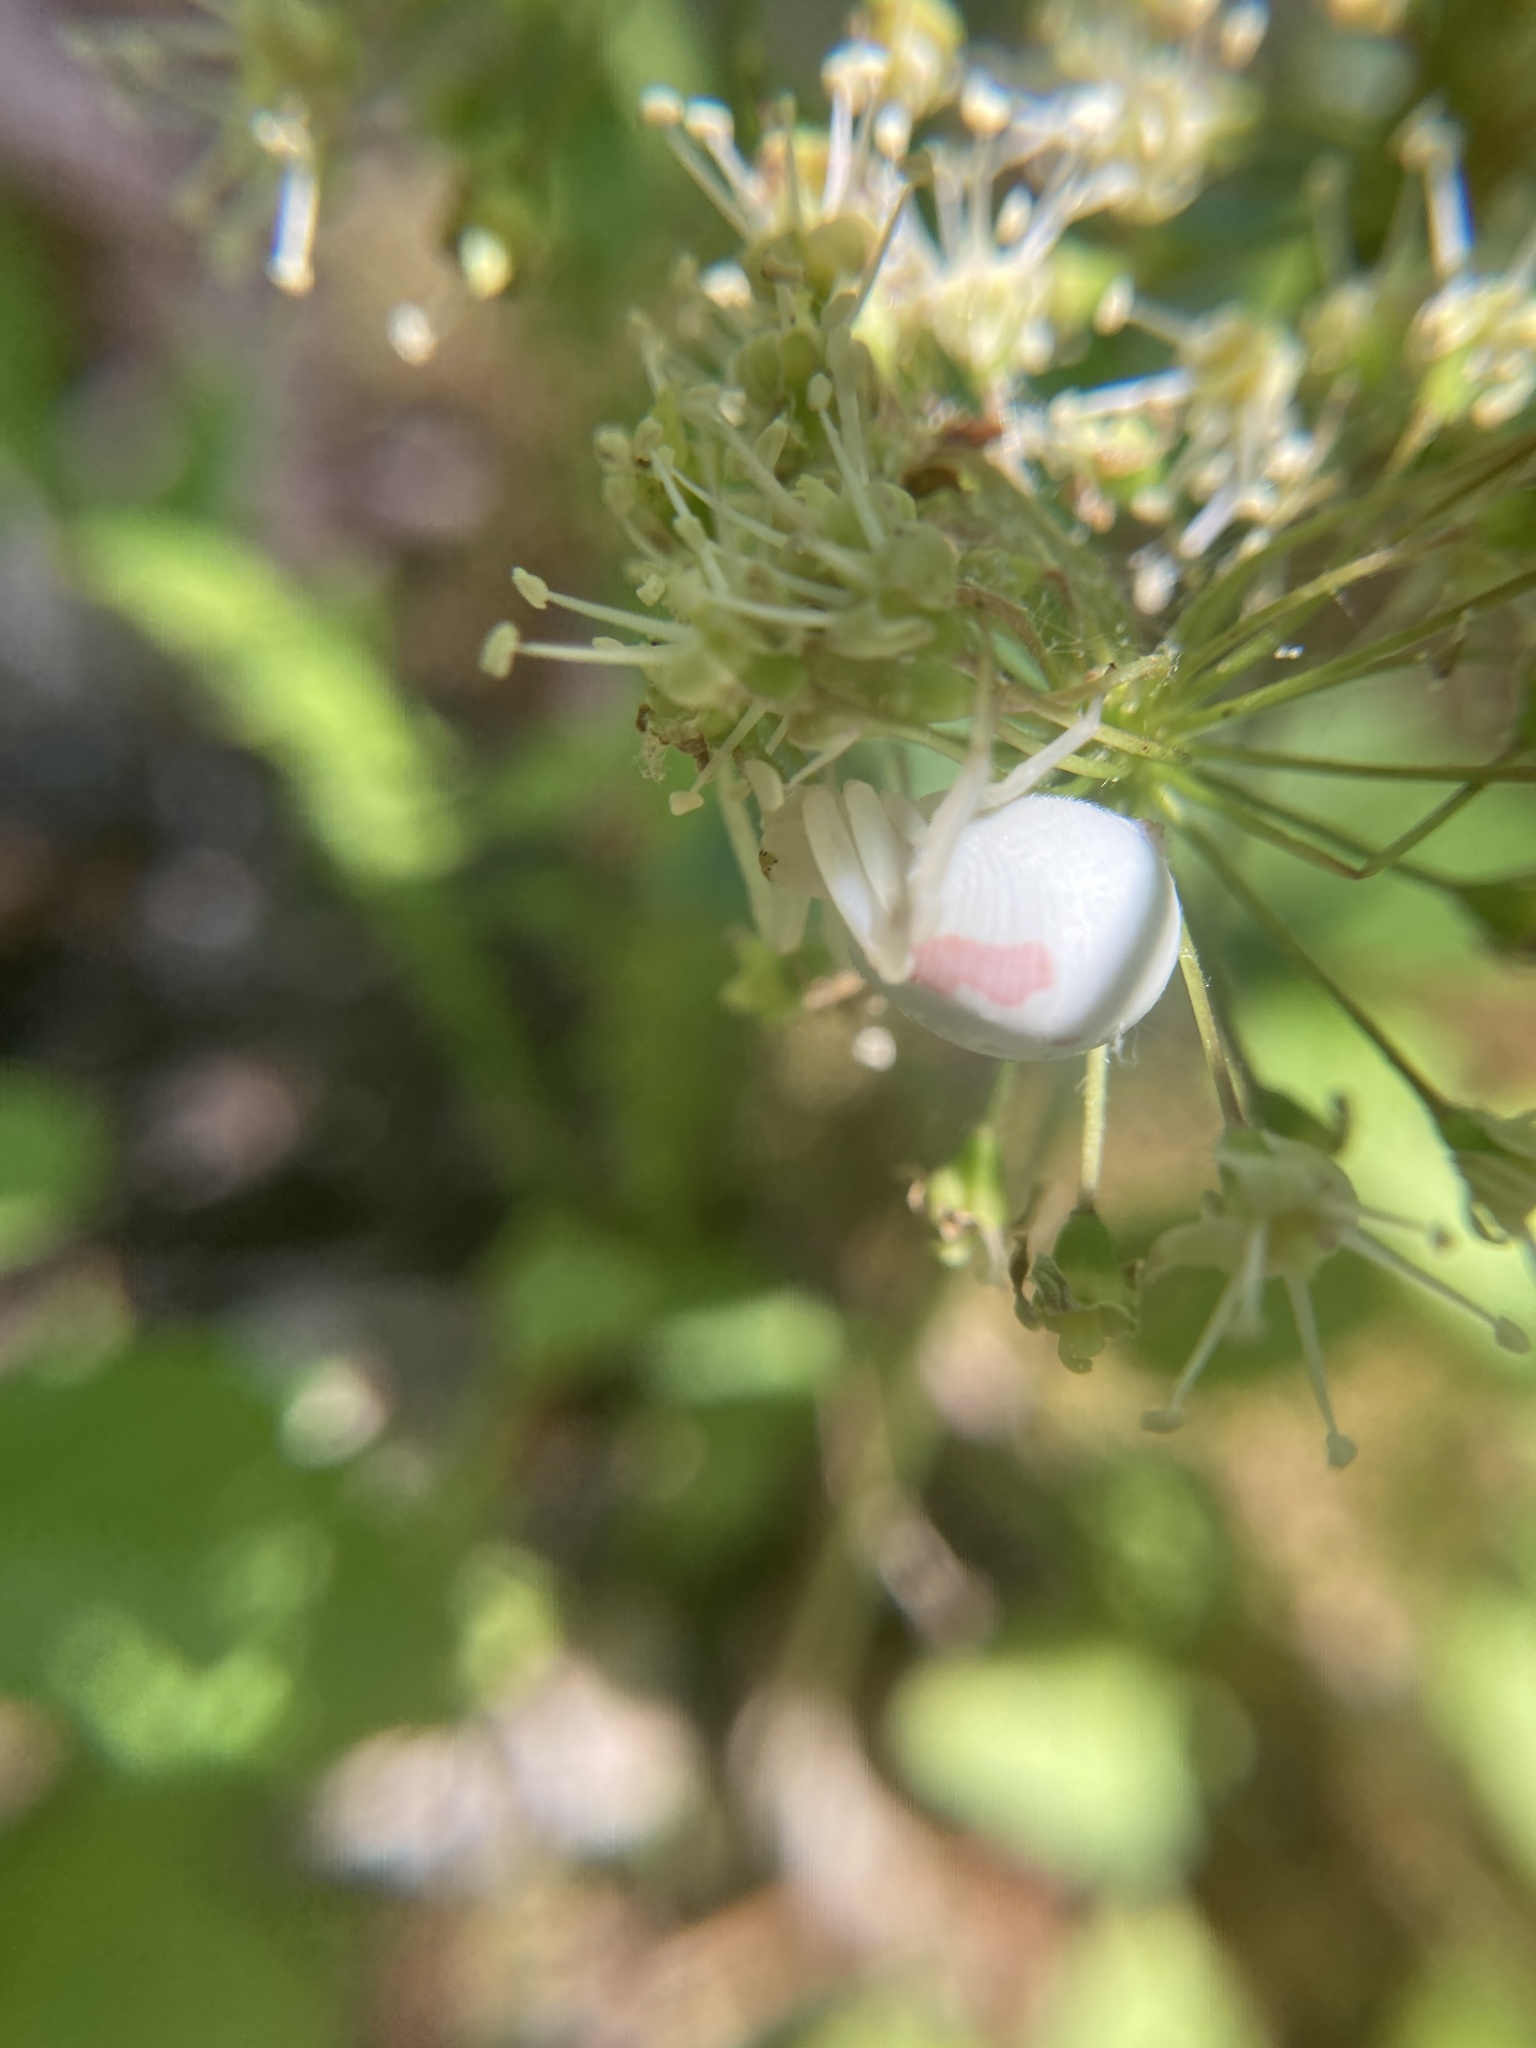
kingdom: Animalia
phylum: Arthropoda
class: Arachnida
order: Araneae
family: Thomisidae
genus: Misumena
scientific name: Misumena vatia
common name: Goldenrod crab spider
